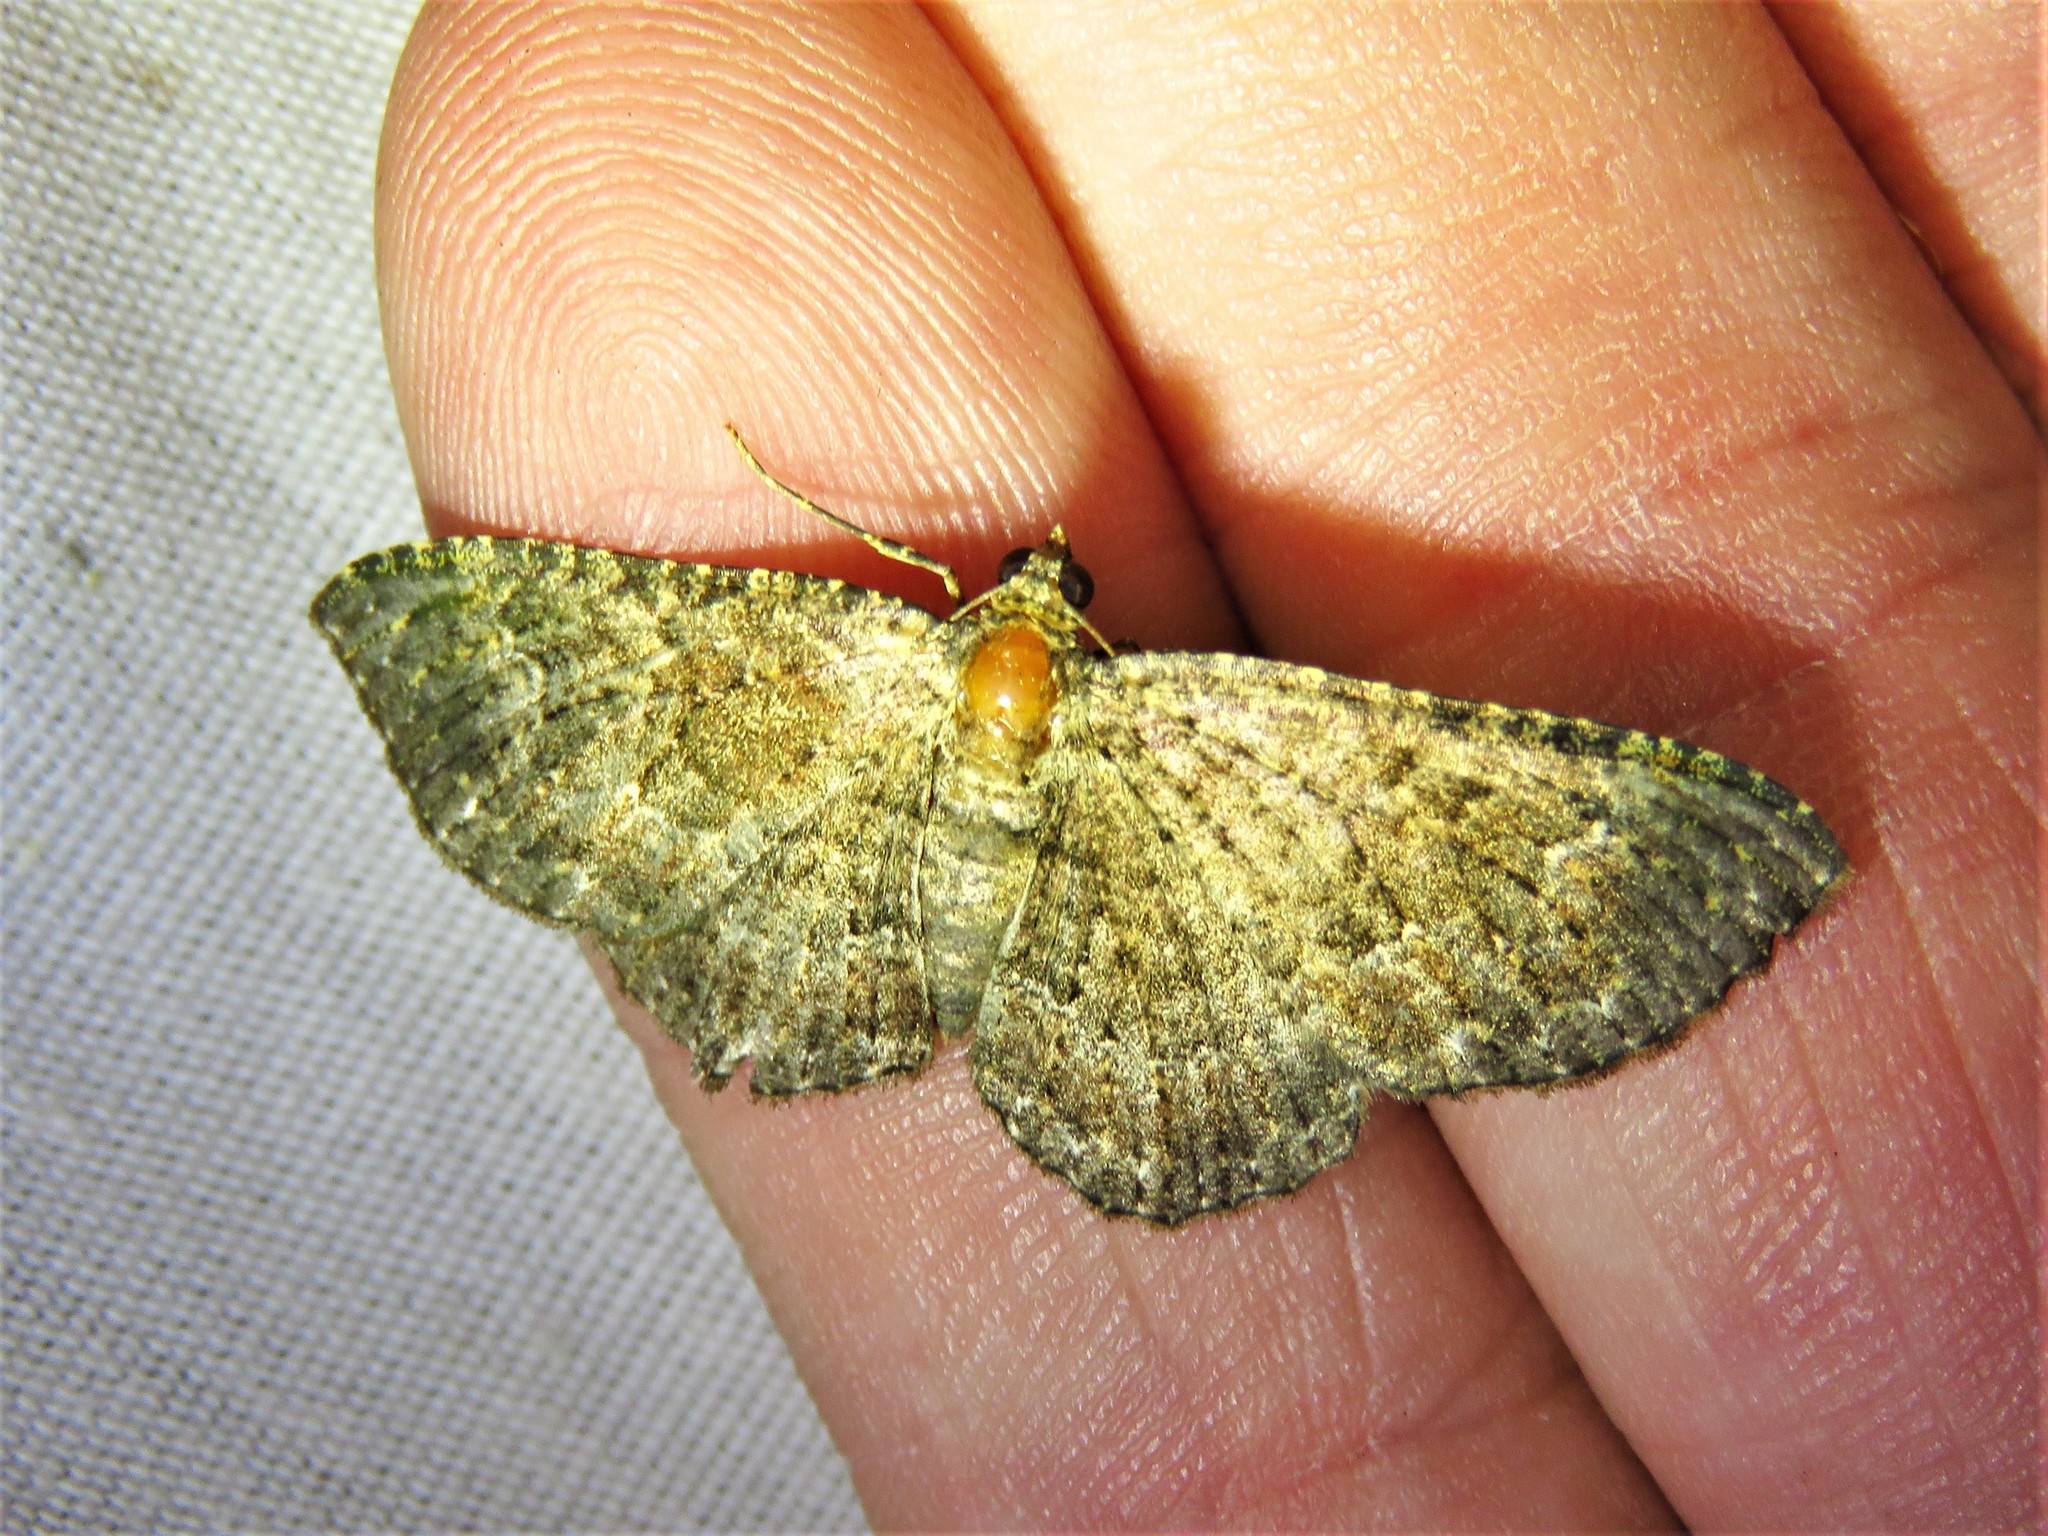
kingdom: Animalia
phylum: Arthropoda
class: Insecta
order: Lepidoptera
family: Geometridae
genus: Disclisioprocta
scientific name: Disclisioprocta stellata
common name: Somber carpet
